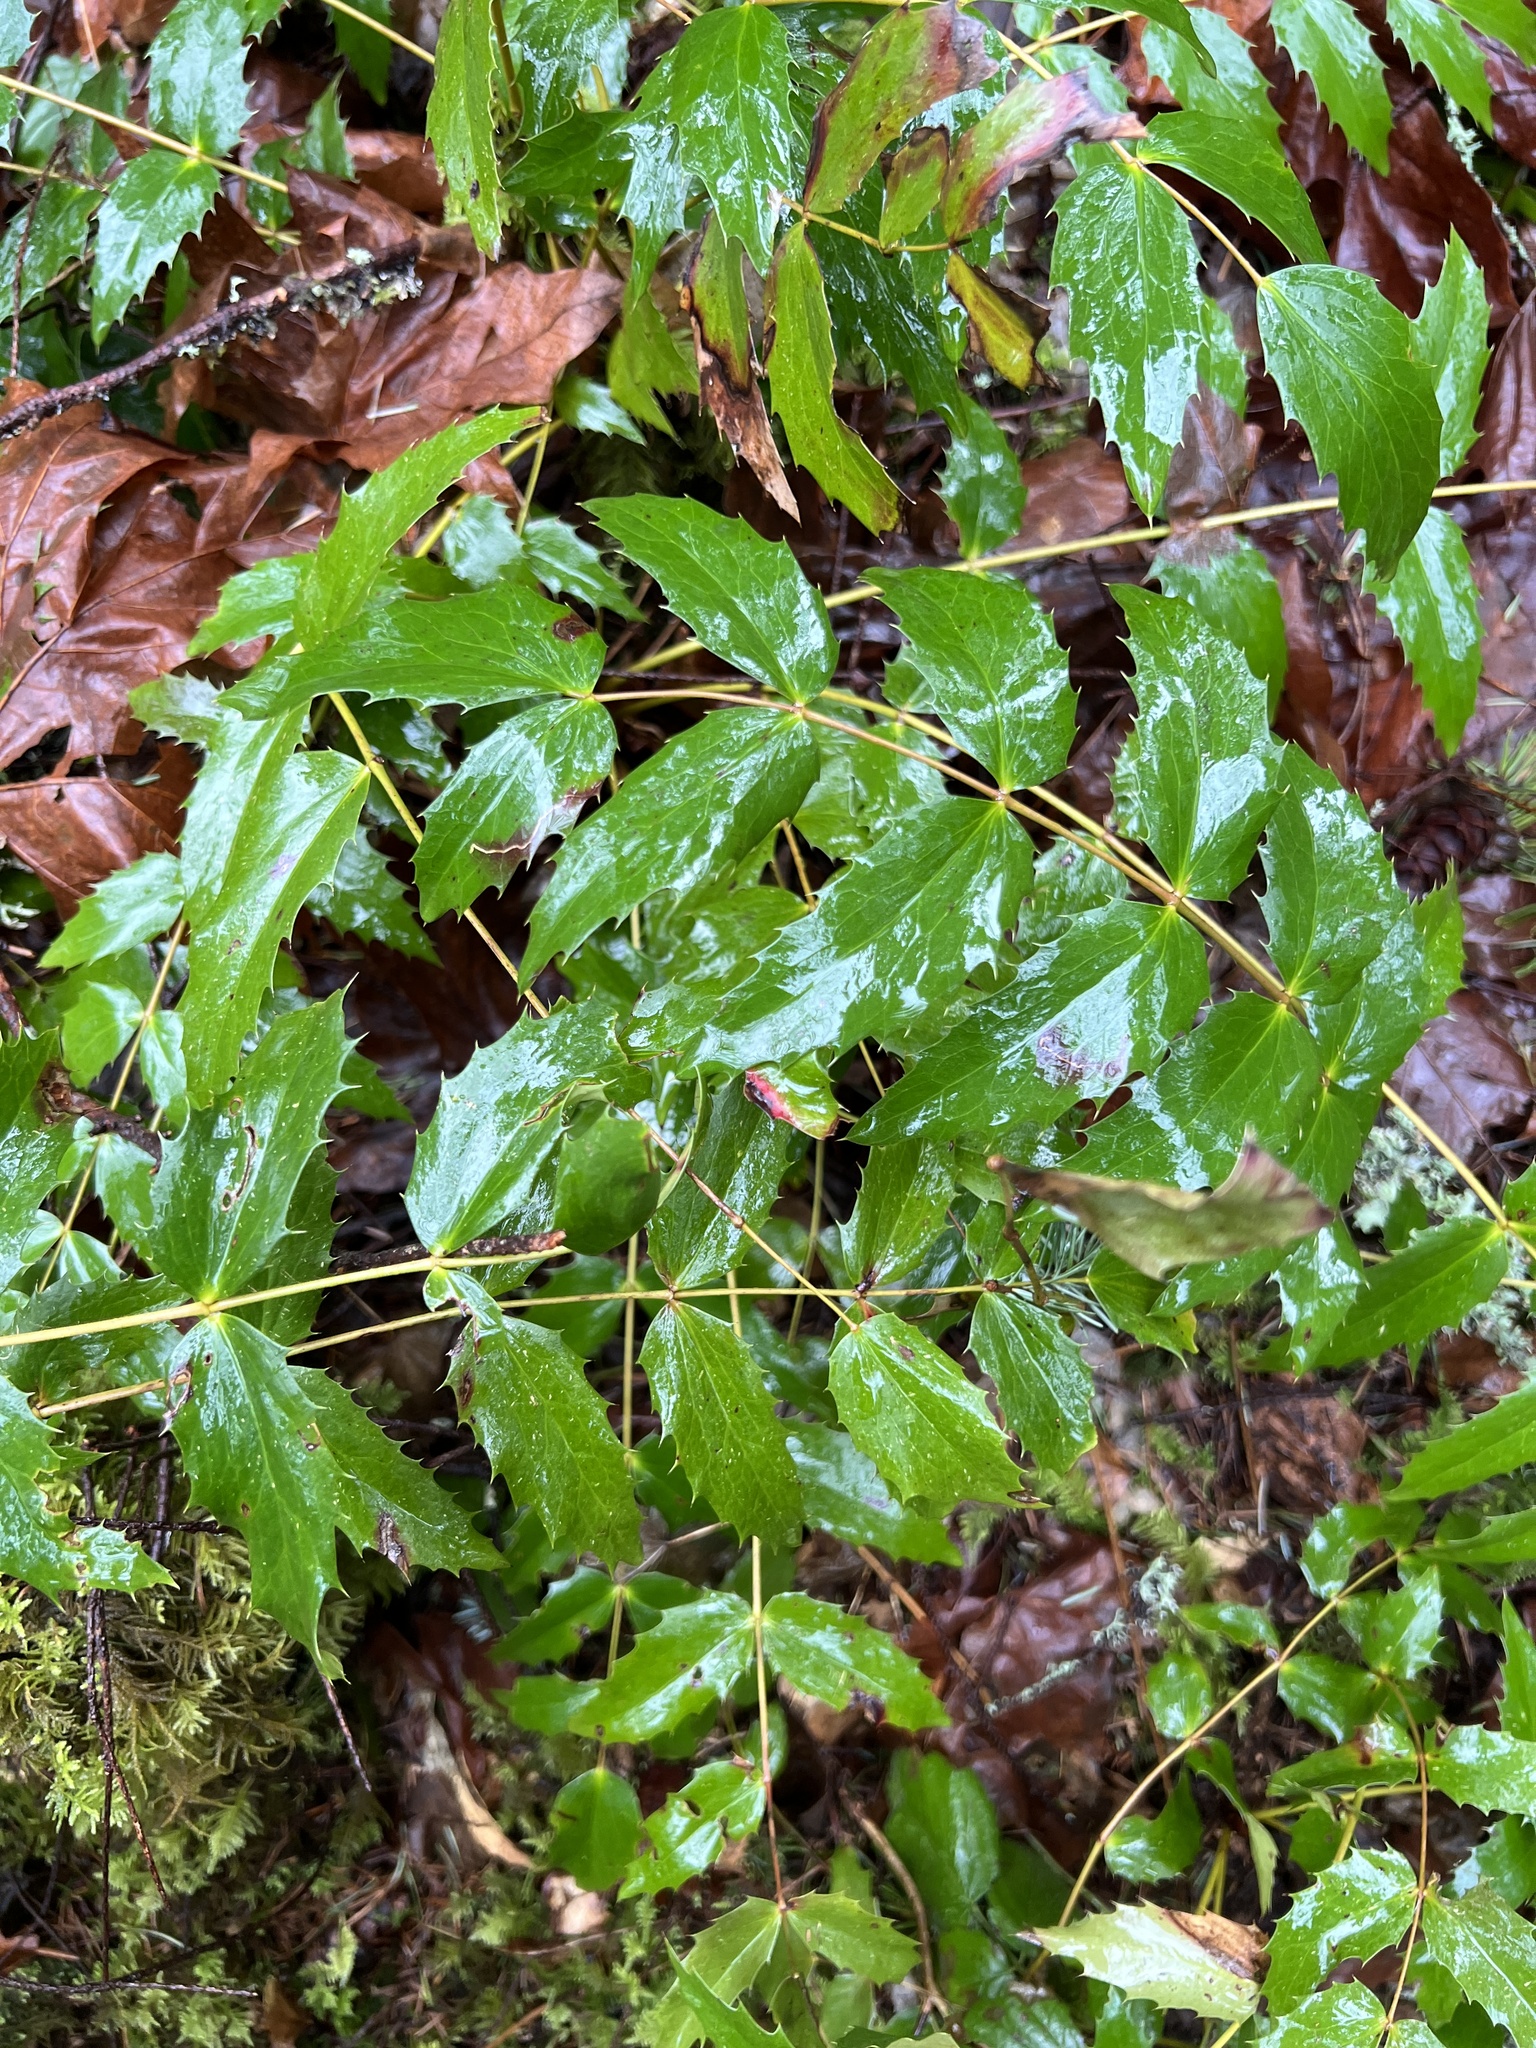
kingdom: Plantae
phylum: Tracheophyta
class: Magnoliopsida
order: Ranunculales
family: Berberidaceae
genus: Mahonia
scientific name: Mahonia nervosa
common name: Cascade oregon-grape
